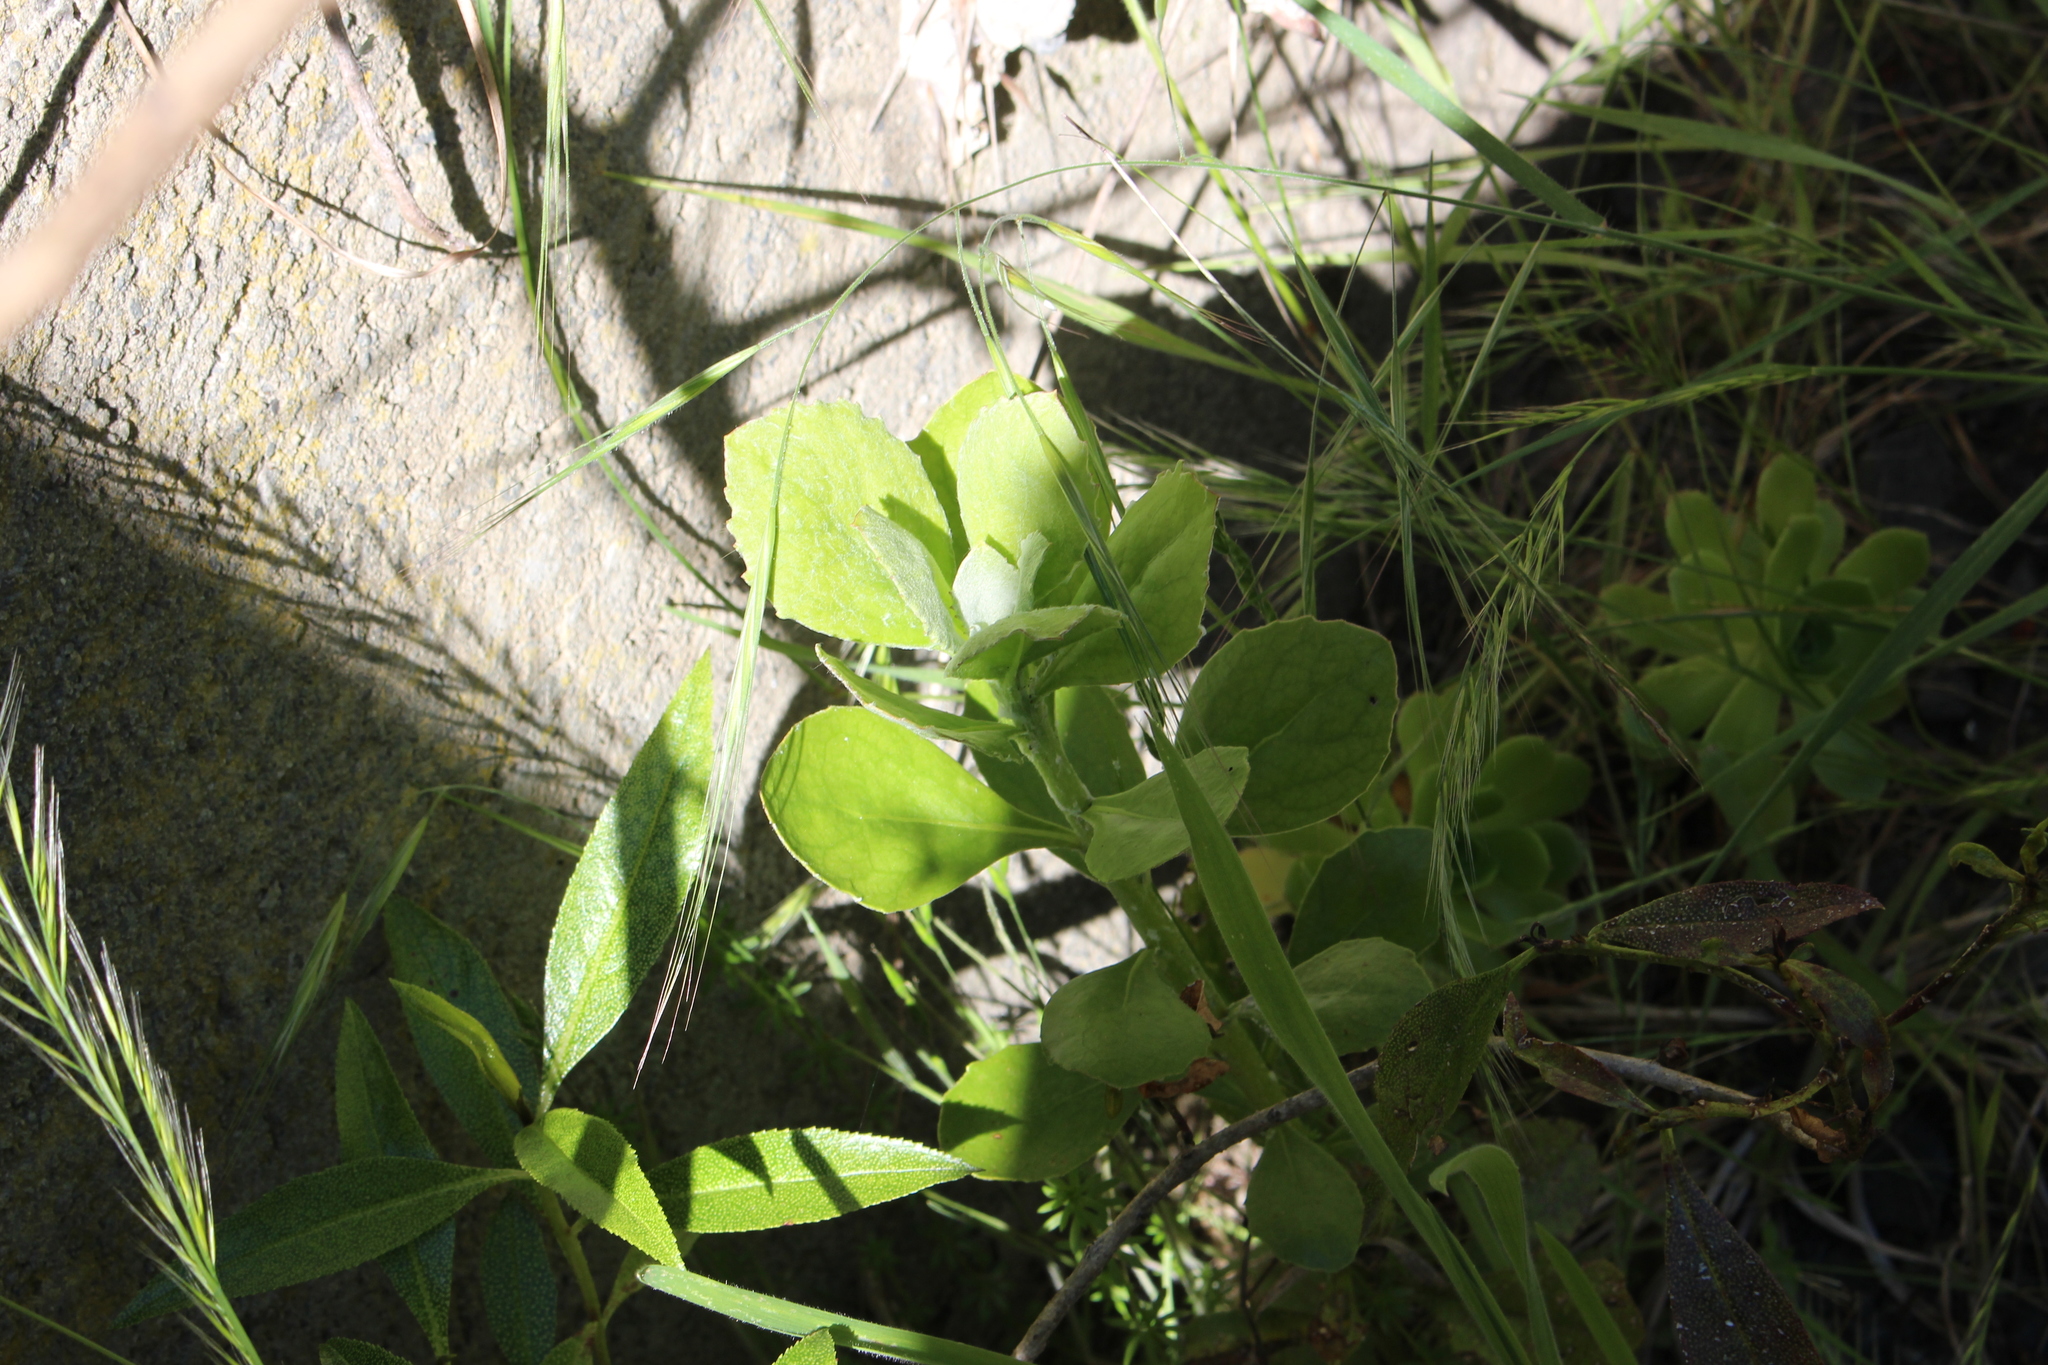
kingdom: Plantae
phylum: Tracheophyta
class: Magnoliopsida
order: Asterales
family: Asteraceae
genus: Osteospermum
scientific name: Osteospermum moniliferum
